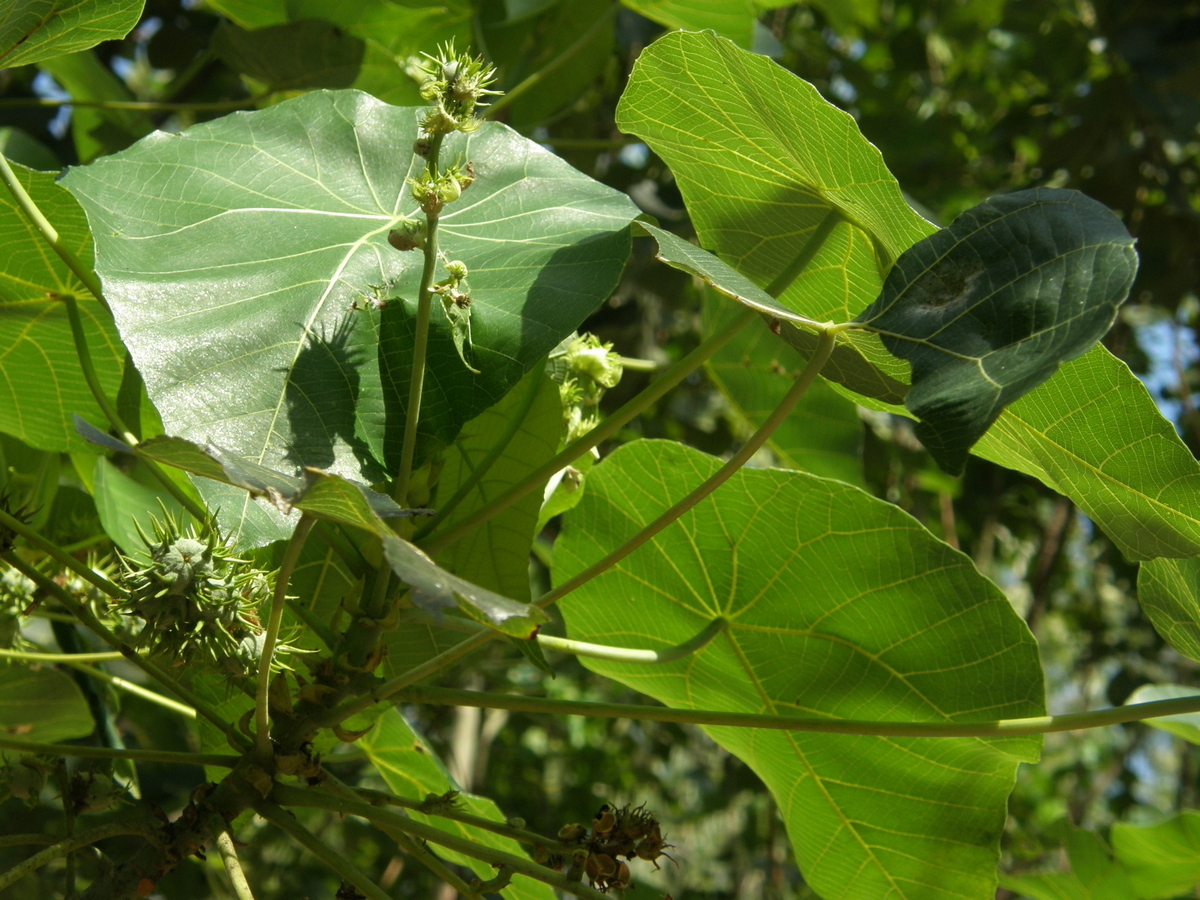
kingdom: Plantae
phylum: Tracheophyta
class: Magnoliopsida
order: Malpighiales
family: Euphorbiaceae
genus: Macaranga
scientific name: Macaranga tanarius
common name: Parasol leaf tree
